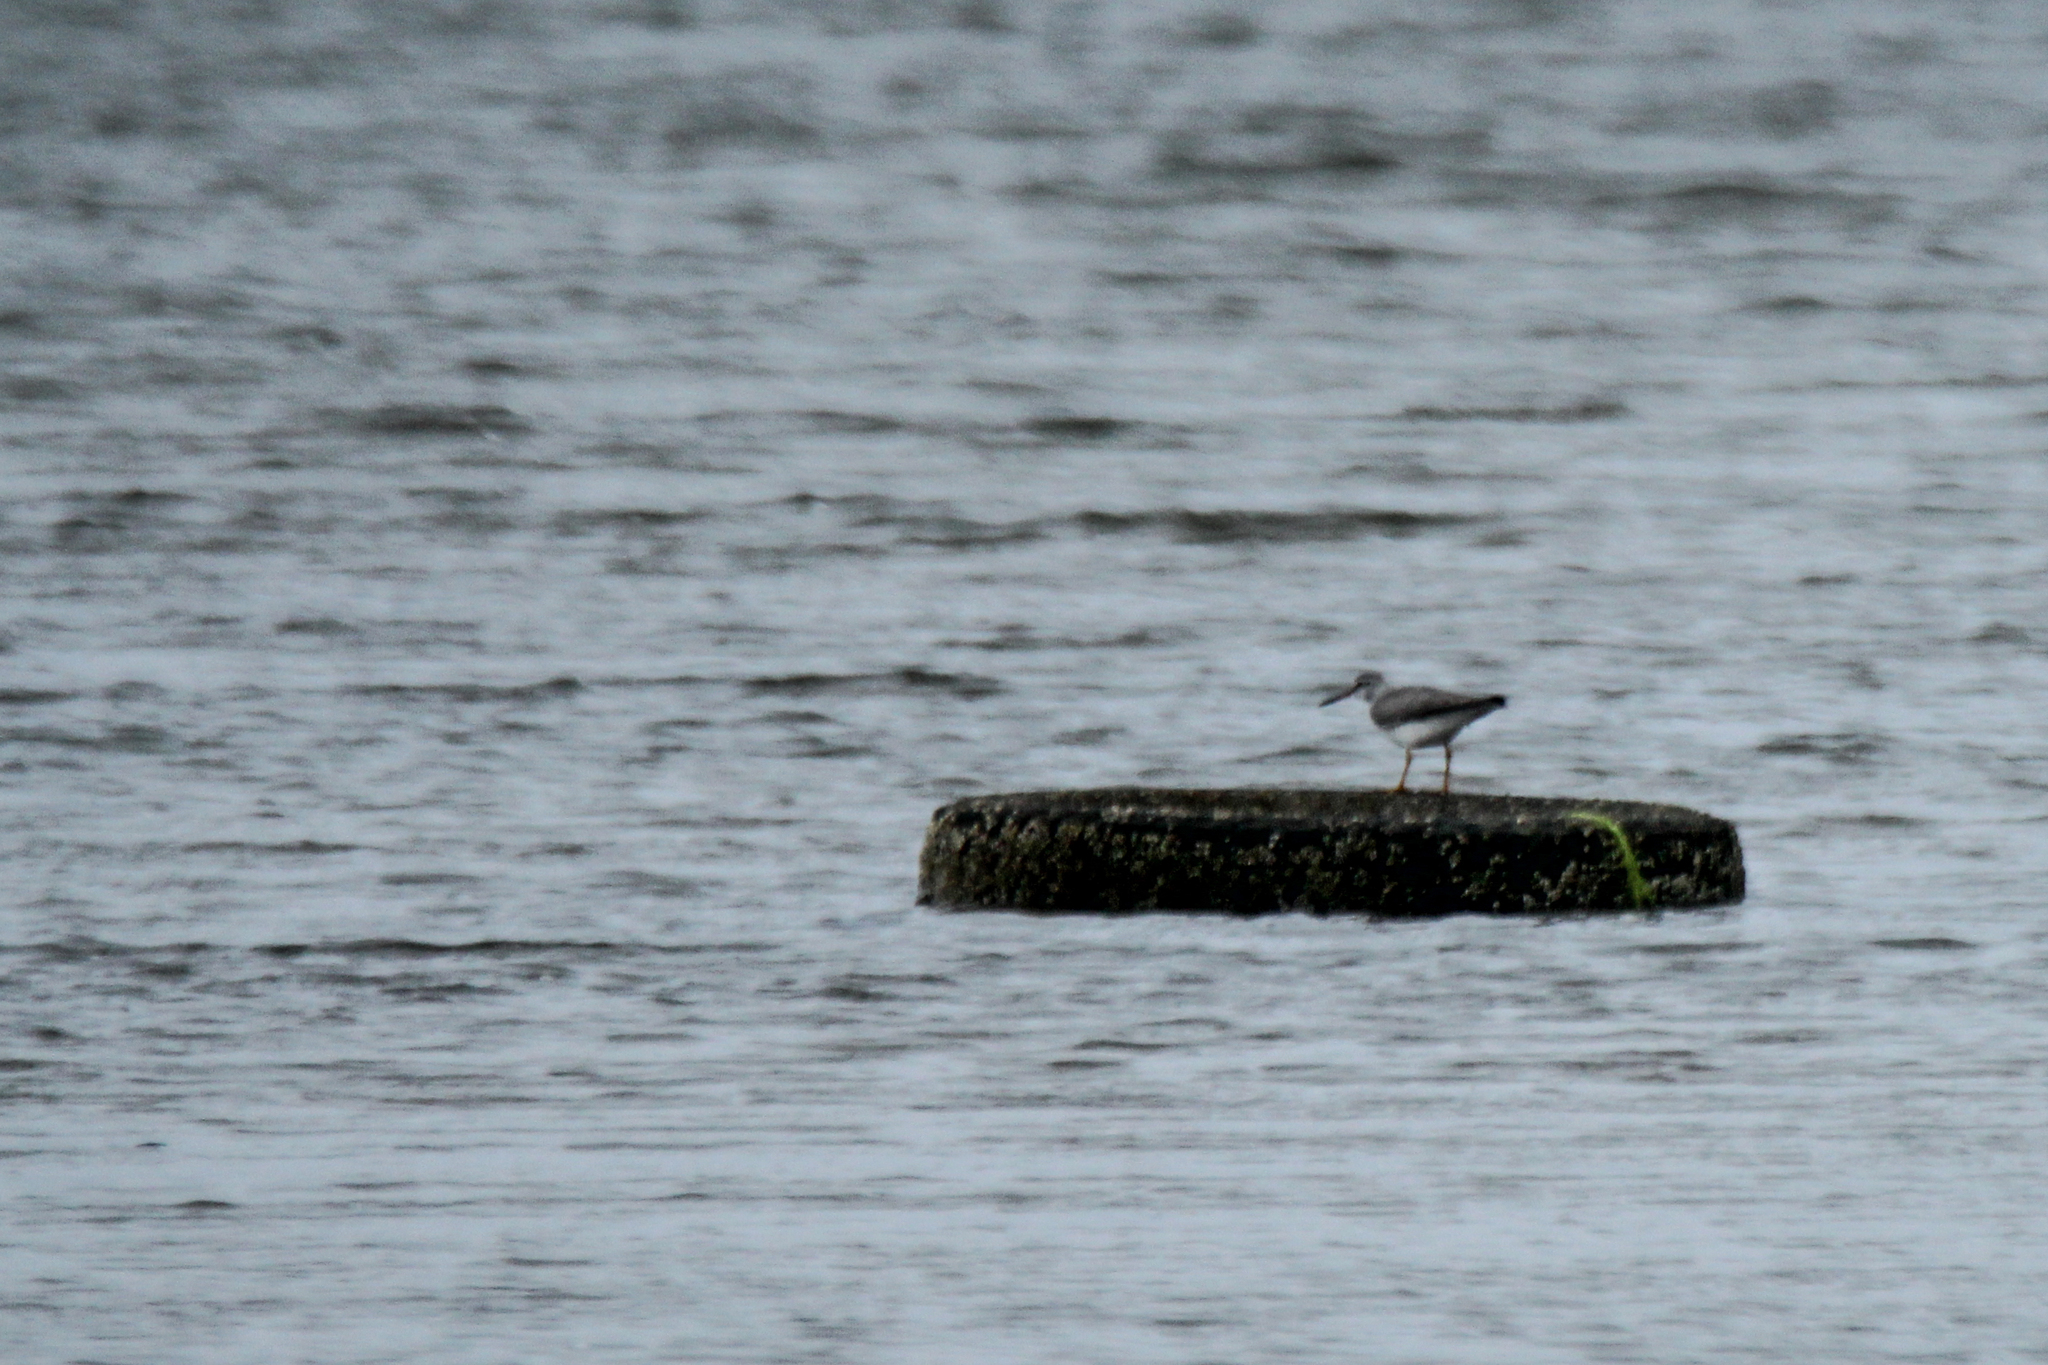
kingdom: Animalia
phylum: Chordata
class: Aves
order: Charadriiformes
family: Scolopacidae
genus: Tringa
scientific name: Tringa brevipes
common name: Grey-tailed tattler
